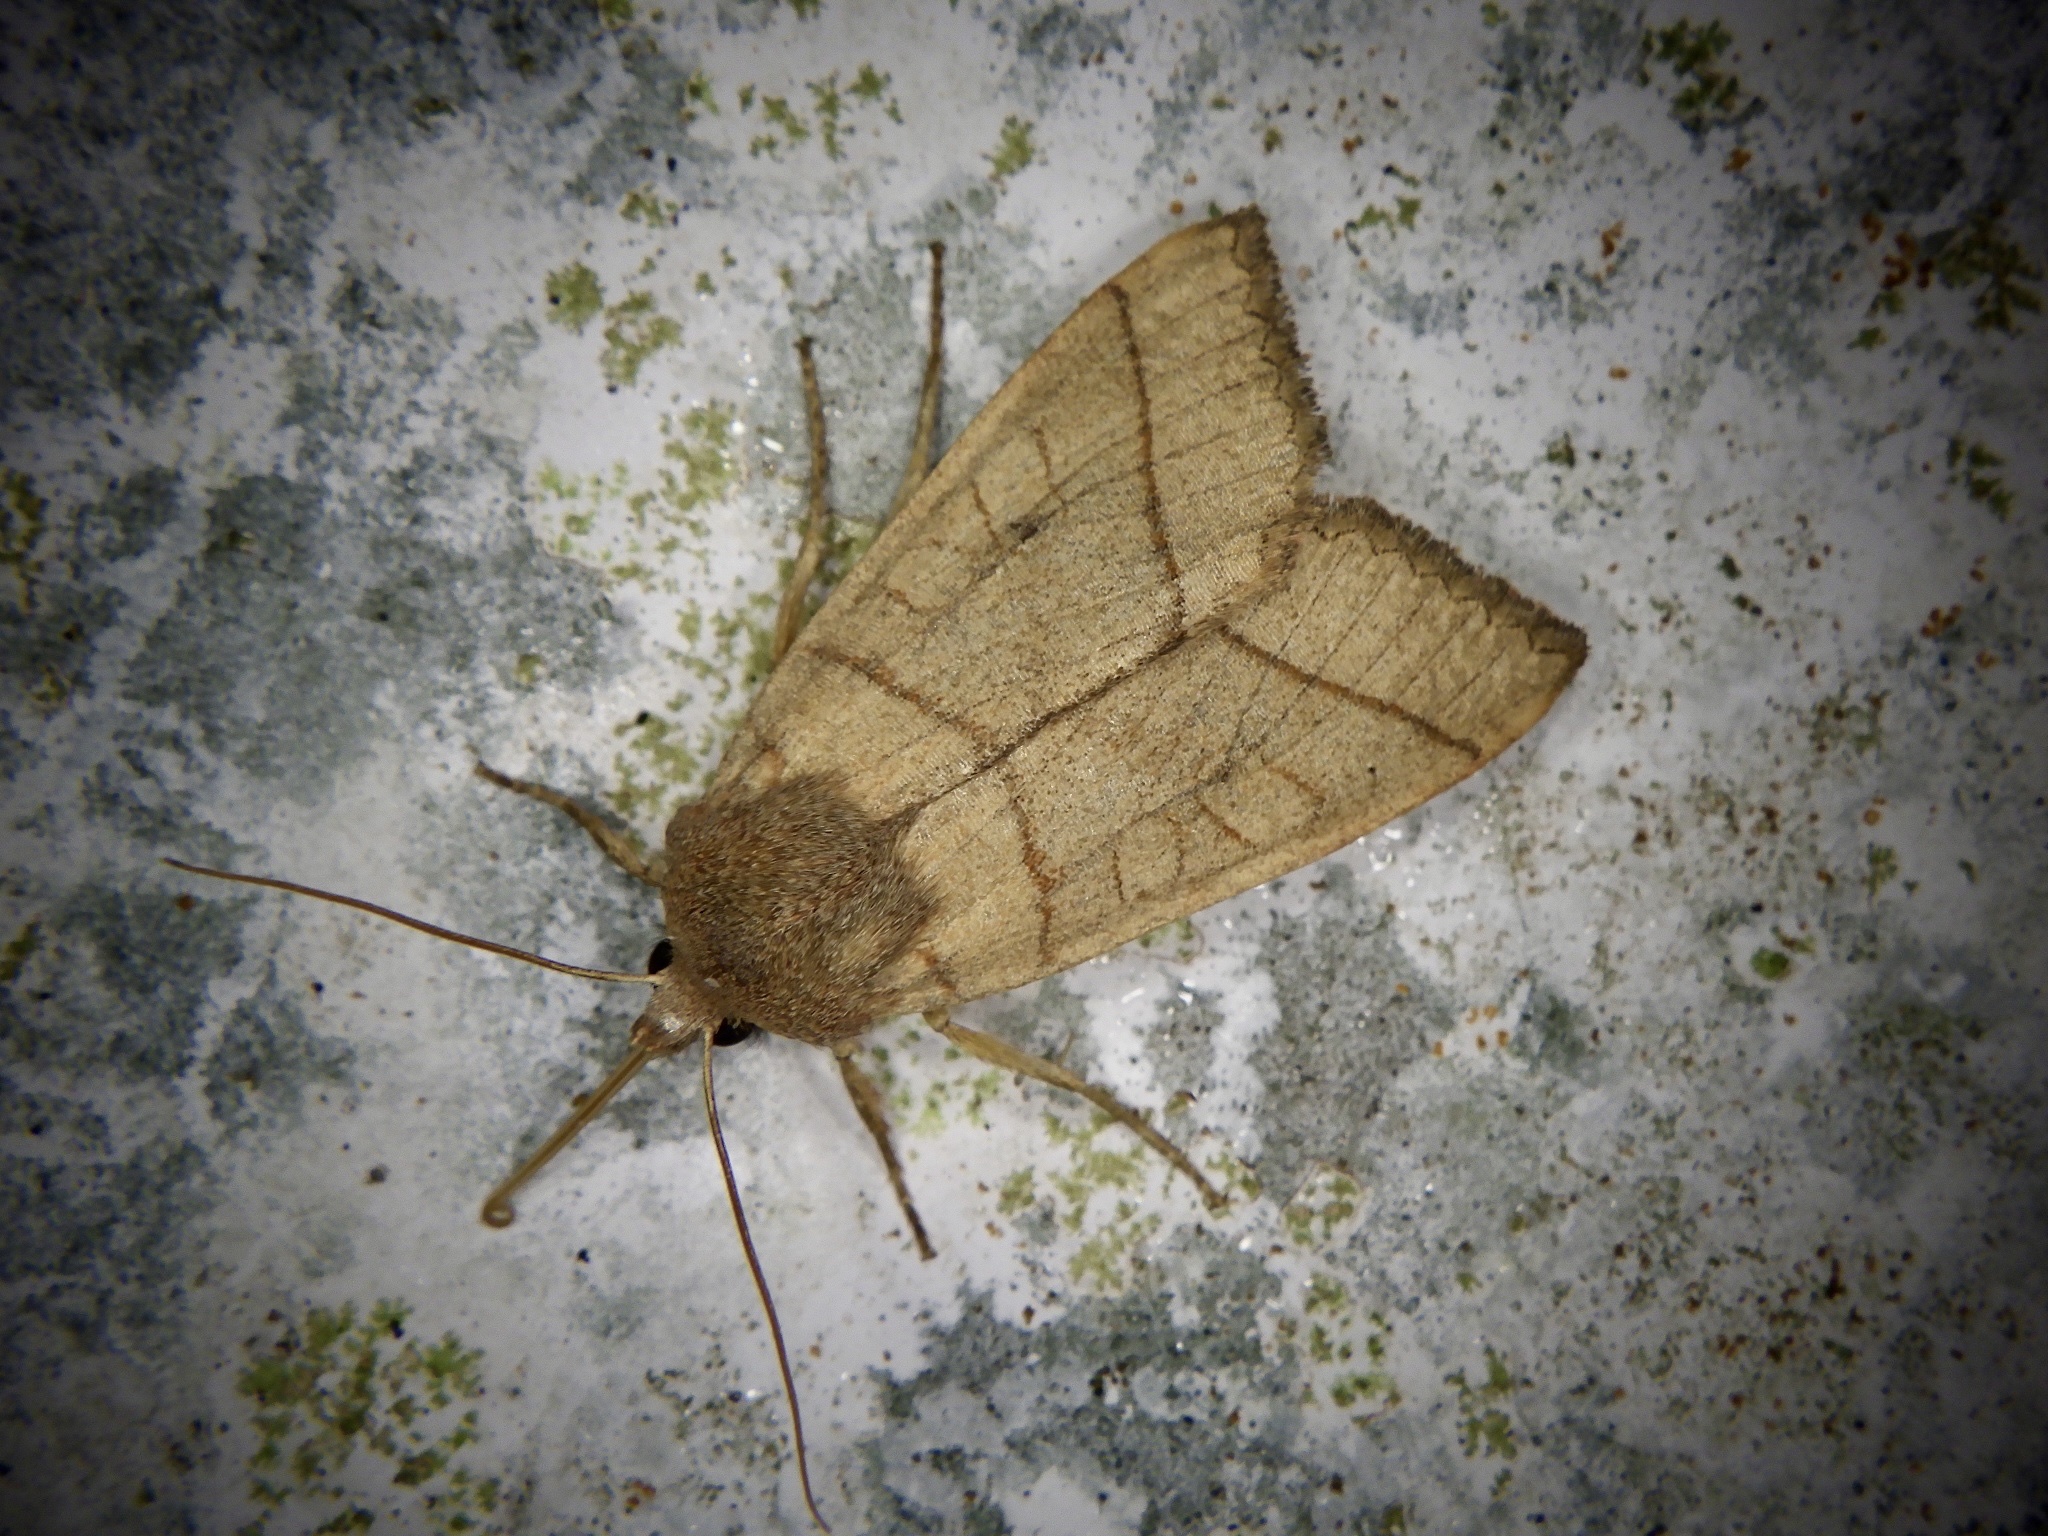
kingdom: Animalia
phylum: Arthropoda
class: Insecta
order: Lepidoptera
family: Noctuidae
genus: Telorta
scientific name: Telorta divergens
